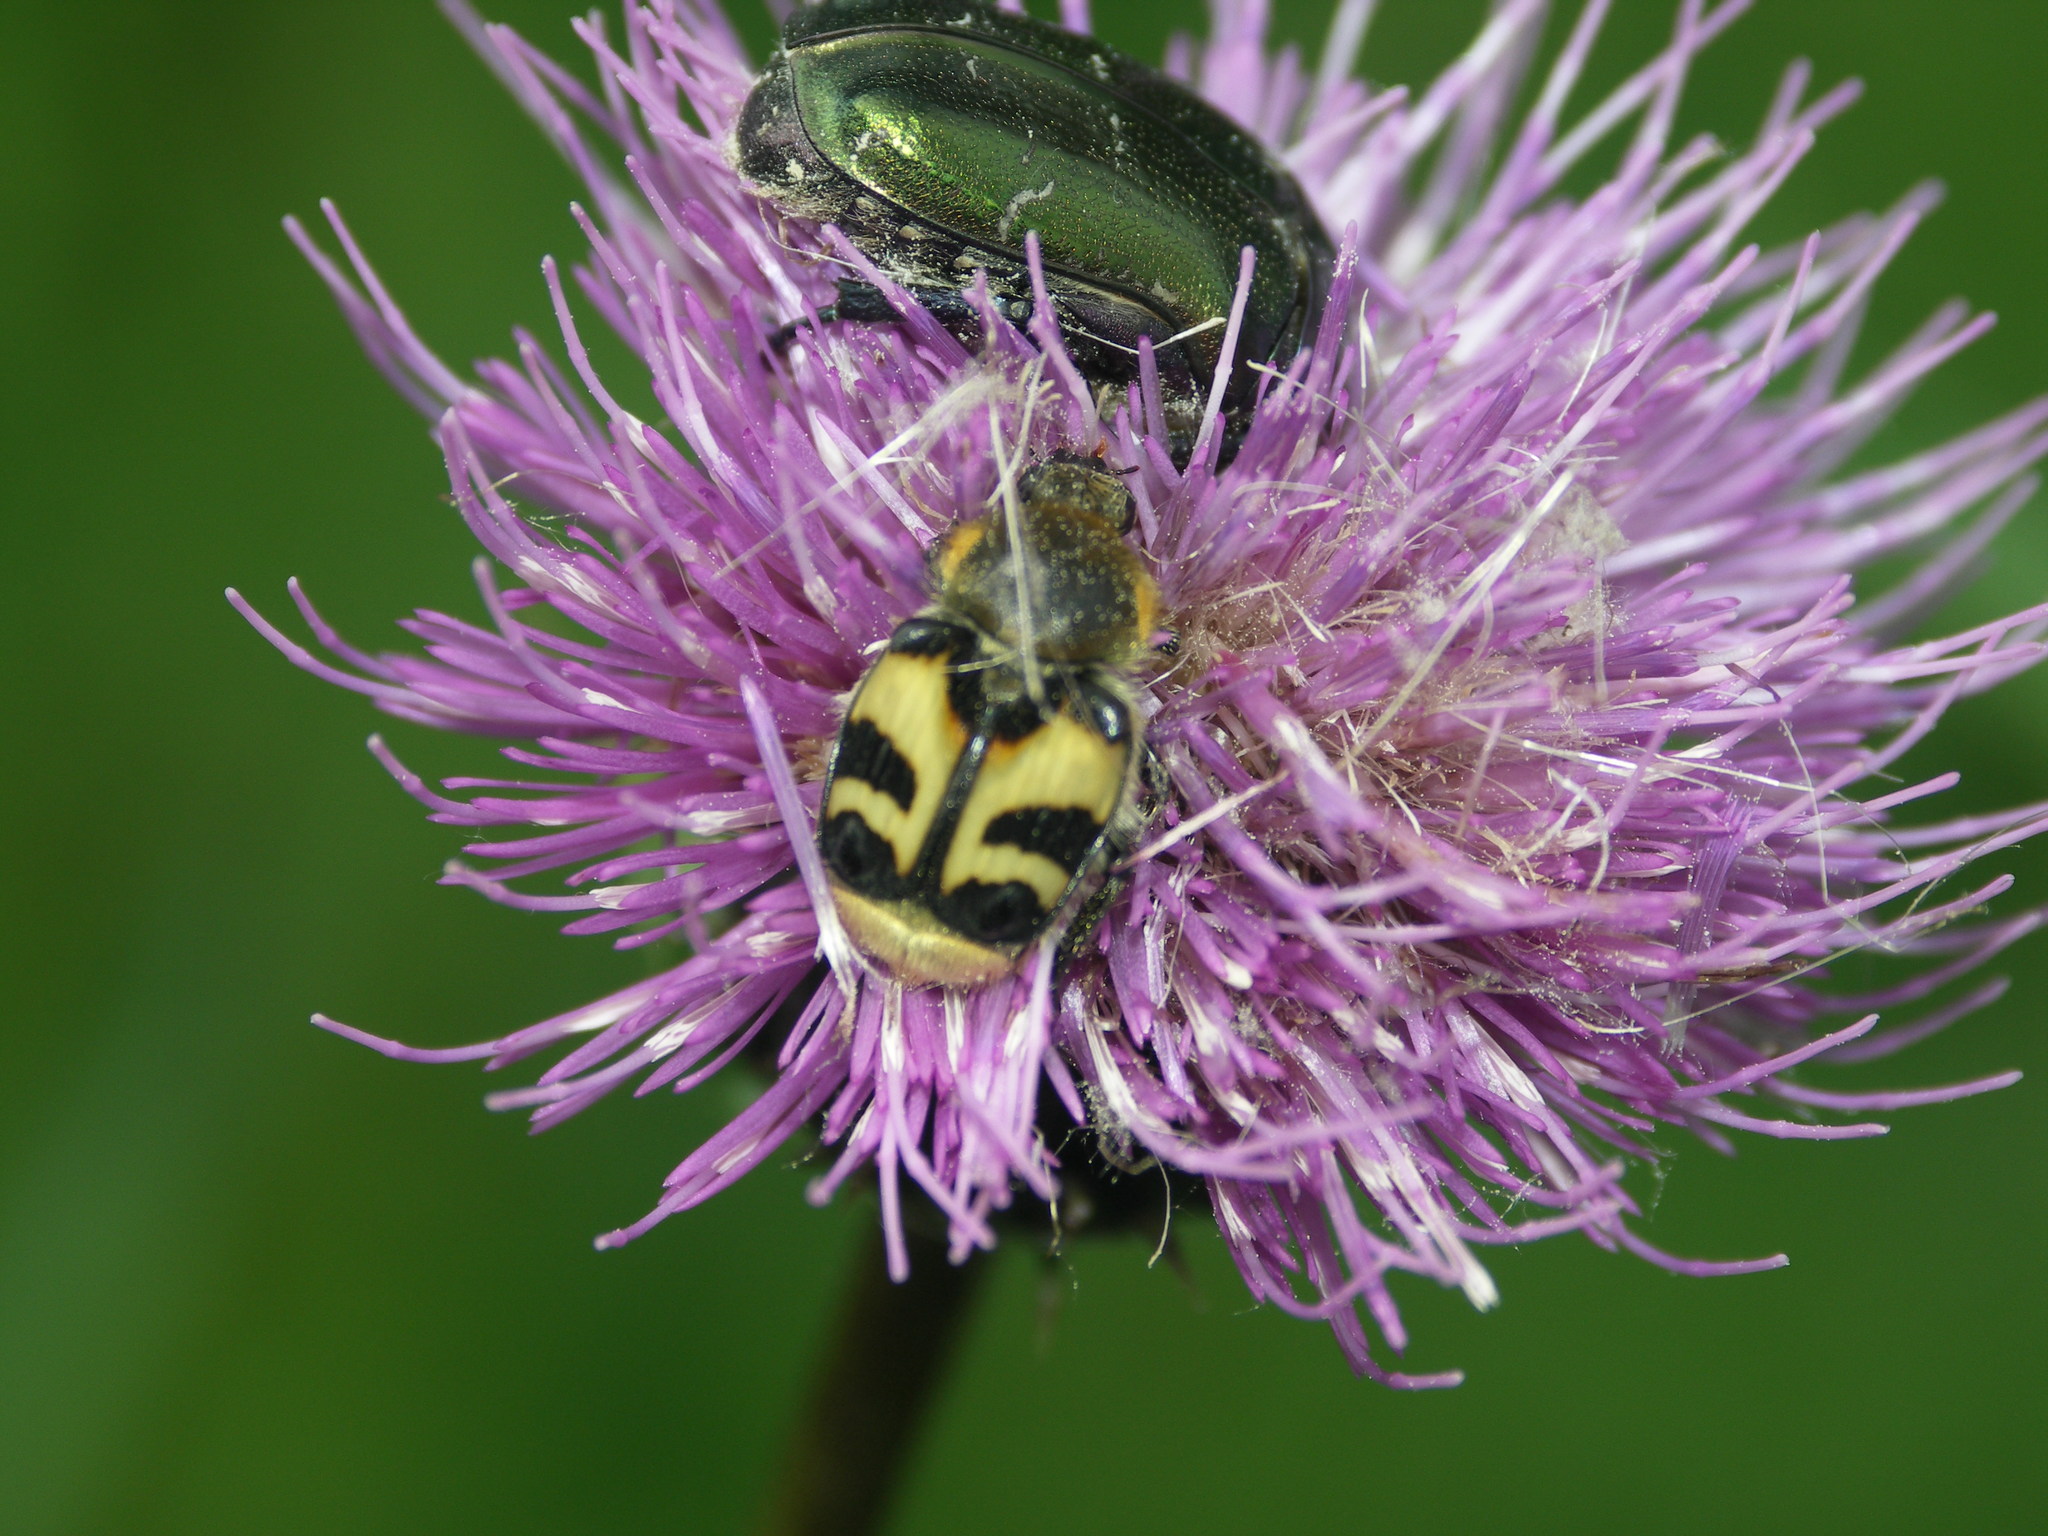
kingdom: Animalia
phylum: Arthropoda
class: Insecta
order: Coleoptera
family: Scarabaeidae
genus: Trichius
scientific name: Trichius fasciatus
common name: Bee beetle
